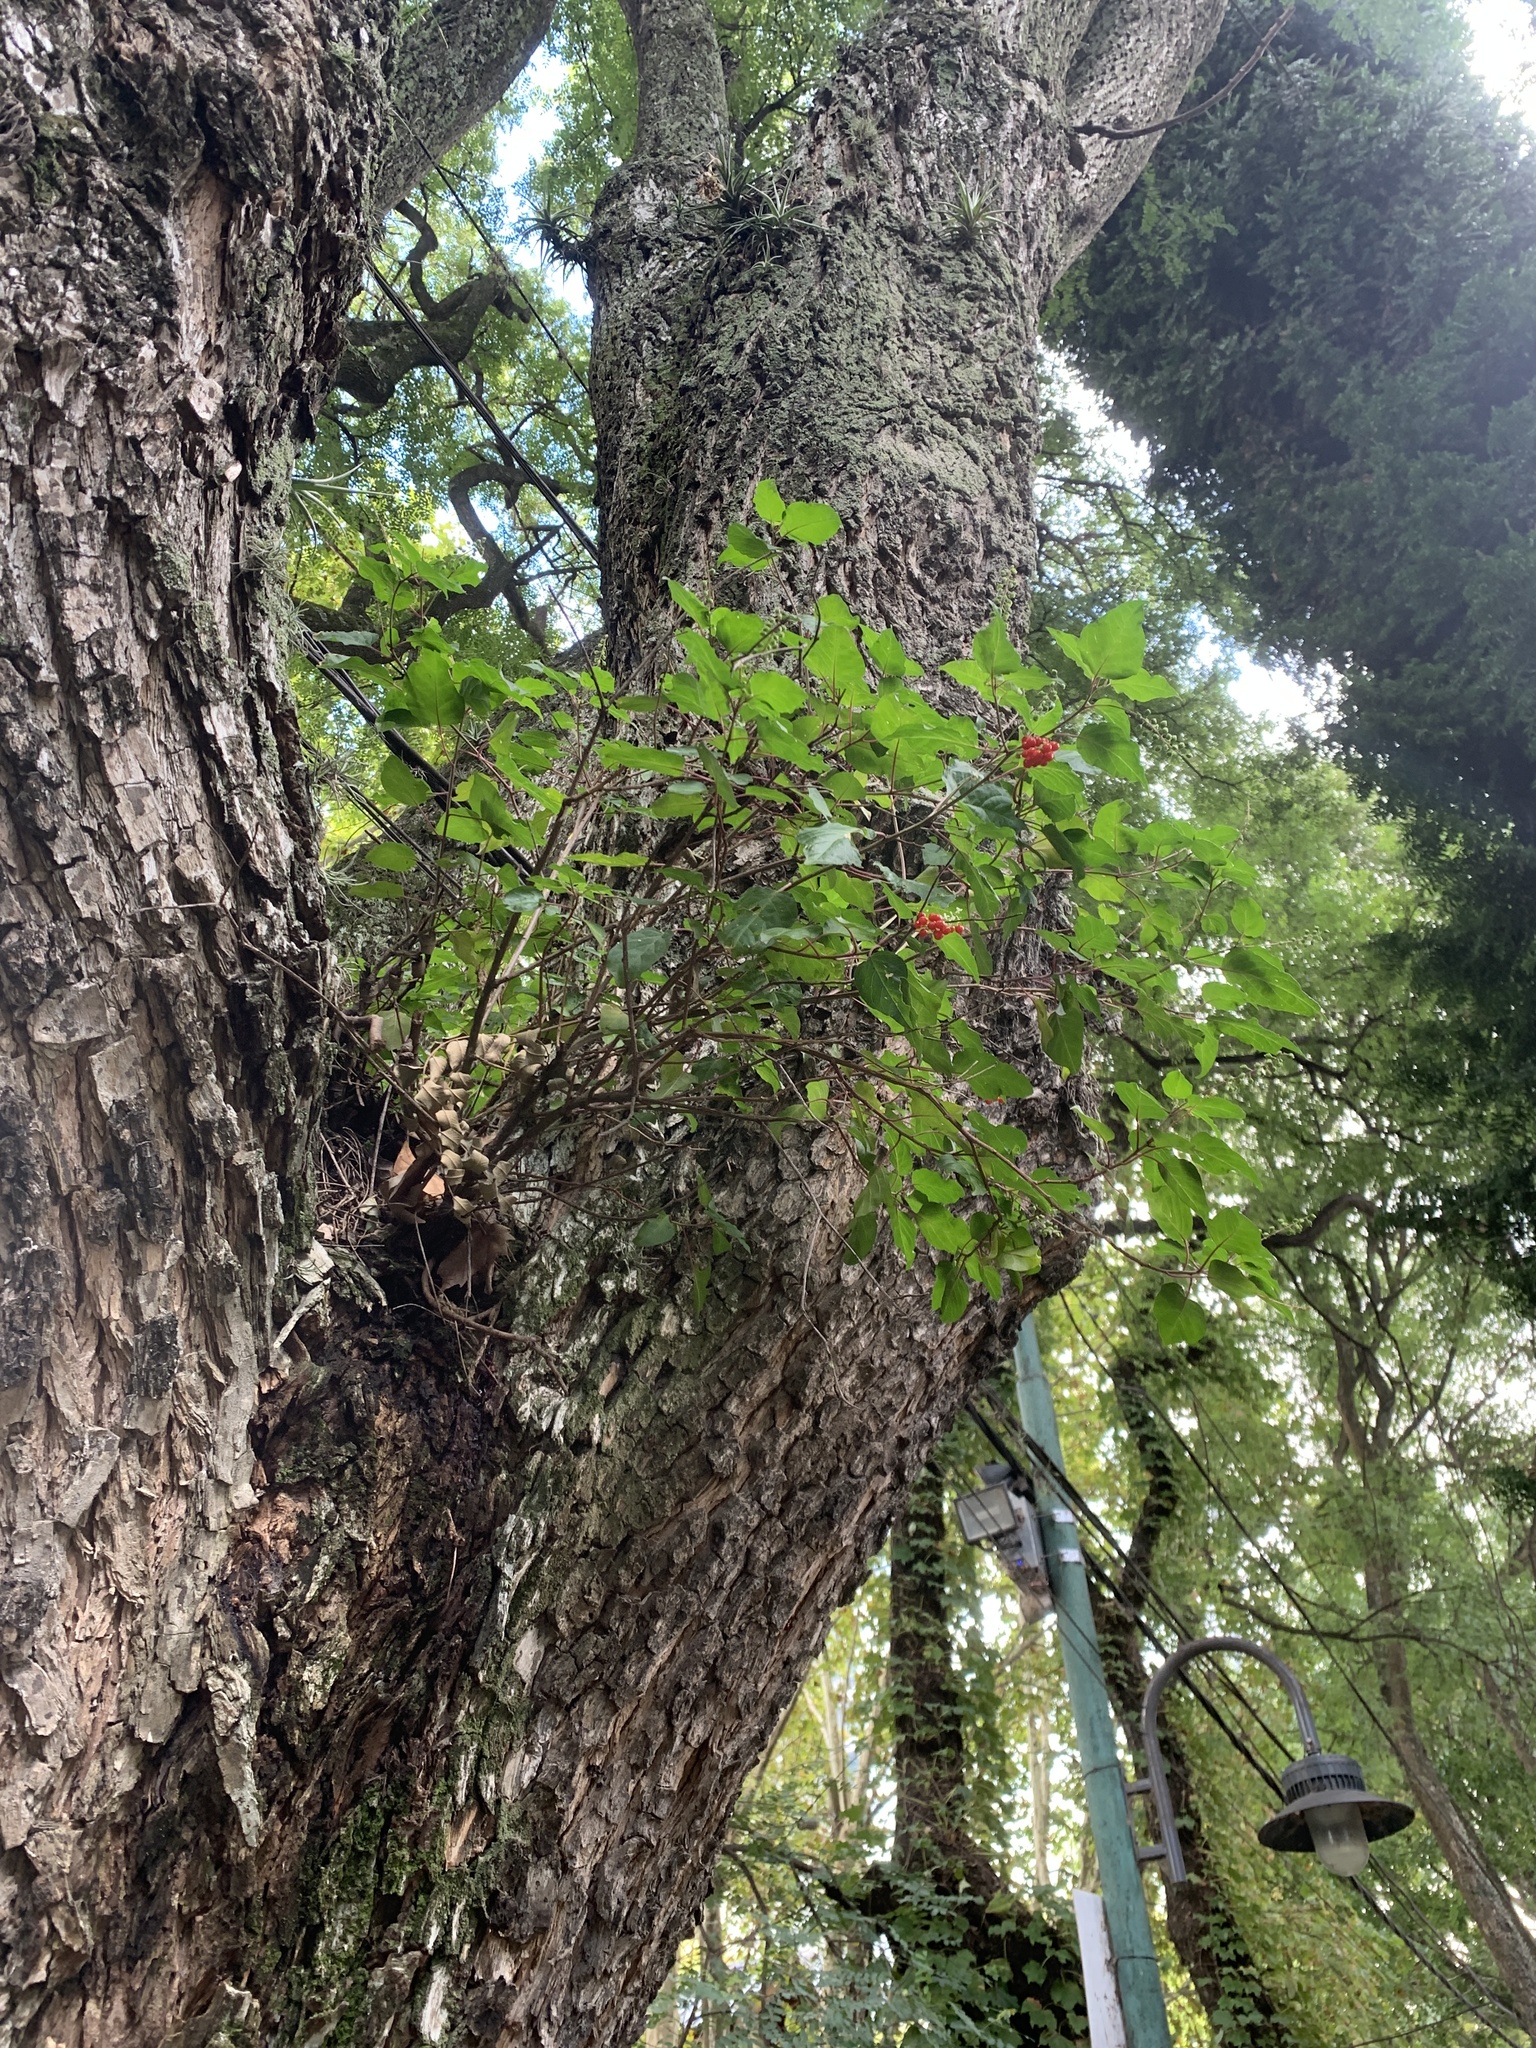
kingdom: Plantae
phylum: Tracheophyta
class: Magnoliopsida
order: Caryophyllales
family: Phytolaccaceae
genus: Rivina
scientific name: Rivina humilis
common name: Rougeplant
